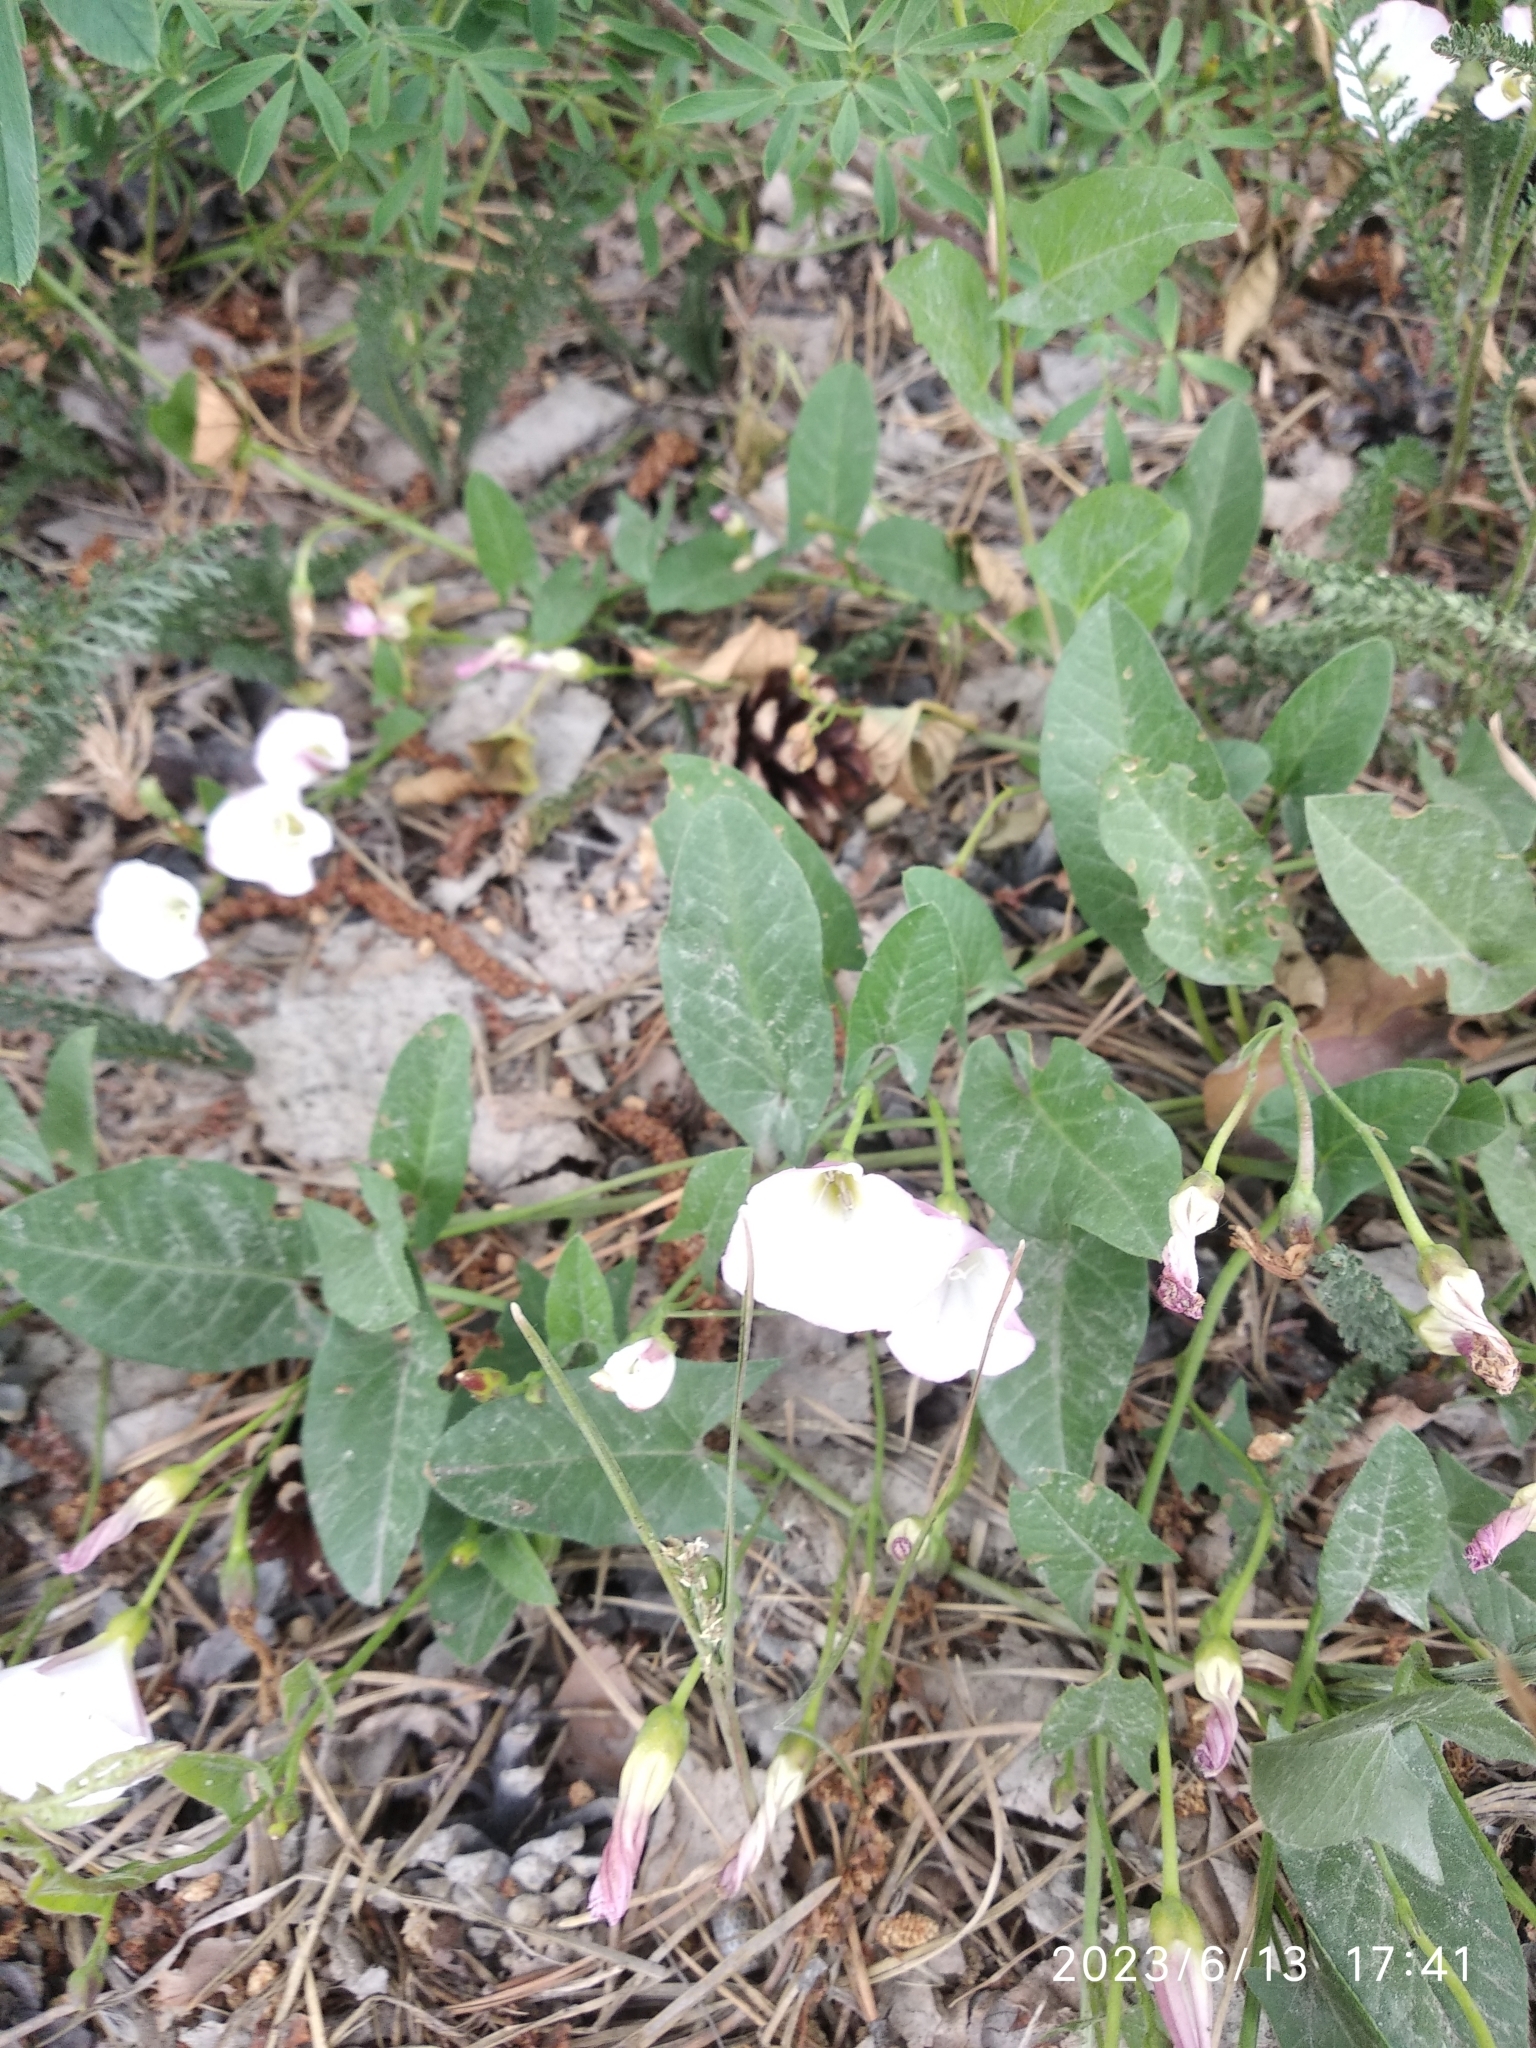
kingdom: Plantae
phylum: Tracheophyta
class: Magnoliopsida
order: Solanales
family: Convolvulaceae
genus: Convolvulus
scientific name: Convolvulus arvensis
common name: Field bindweed
